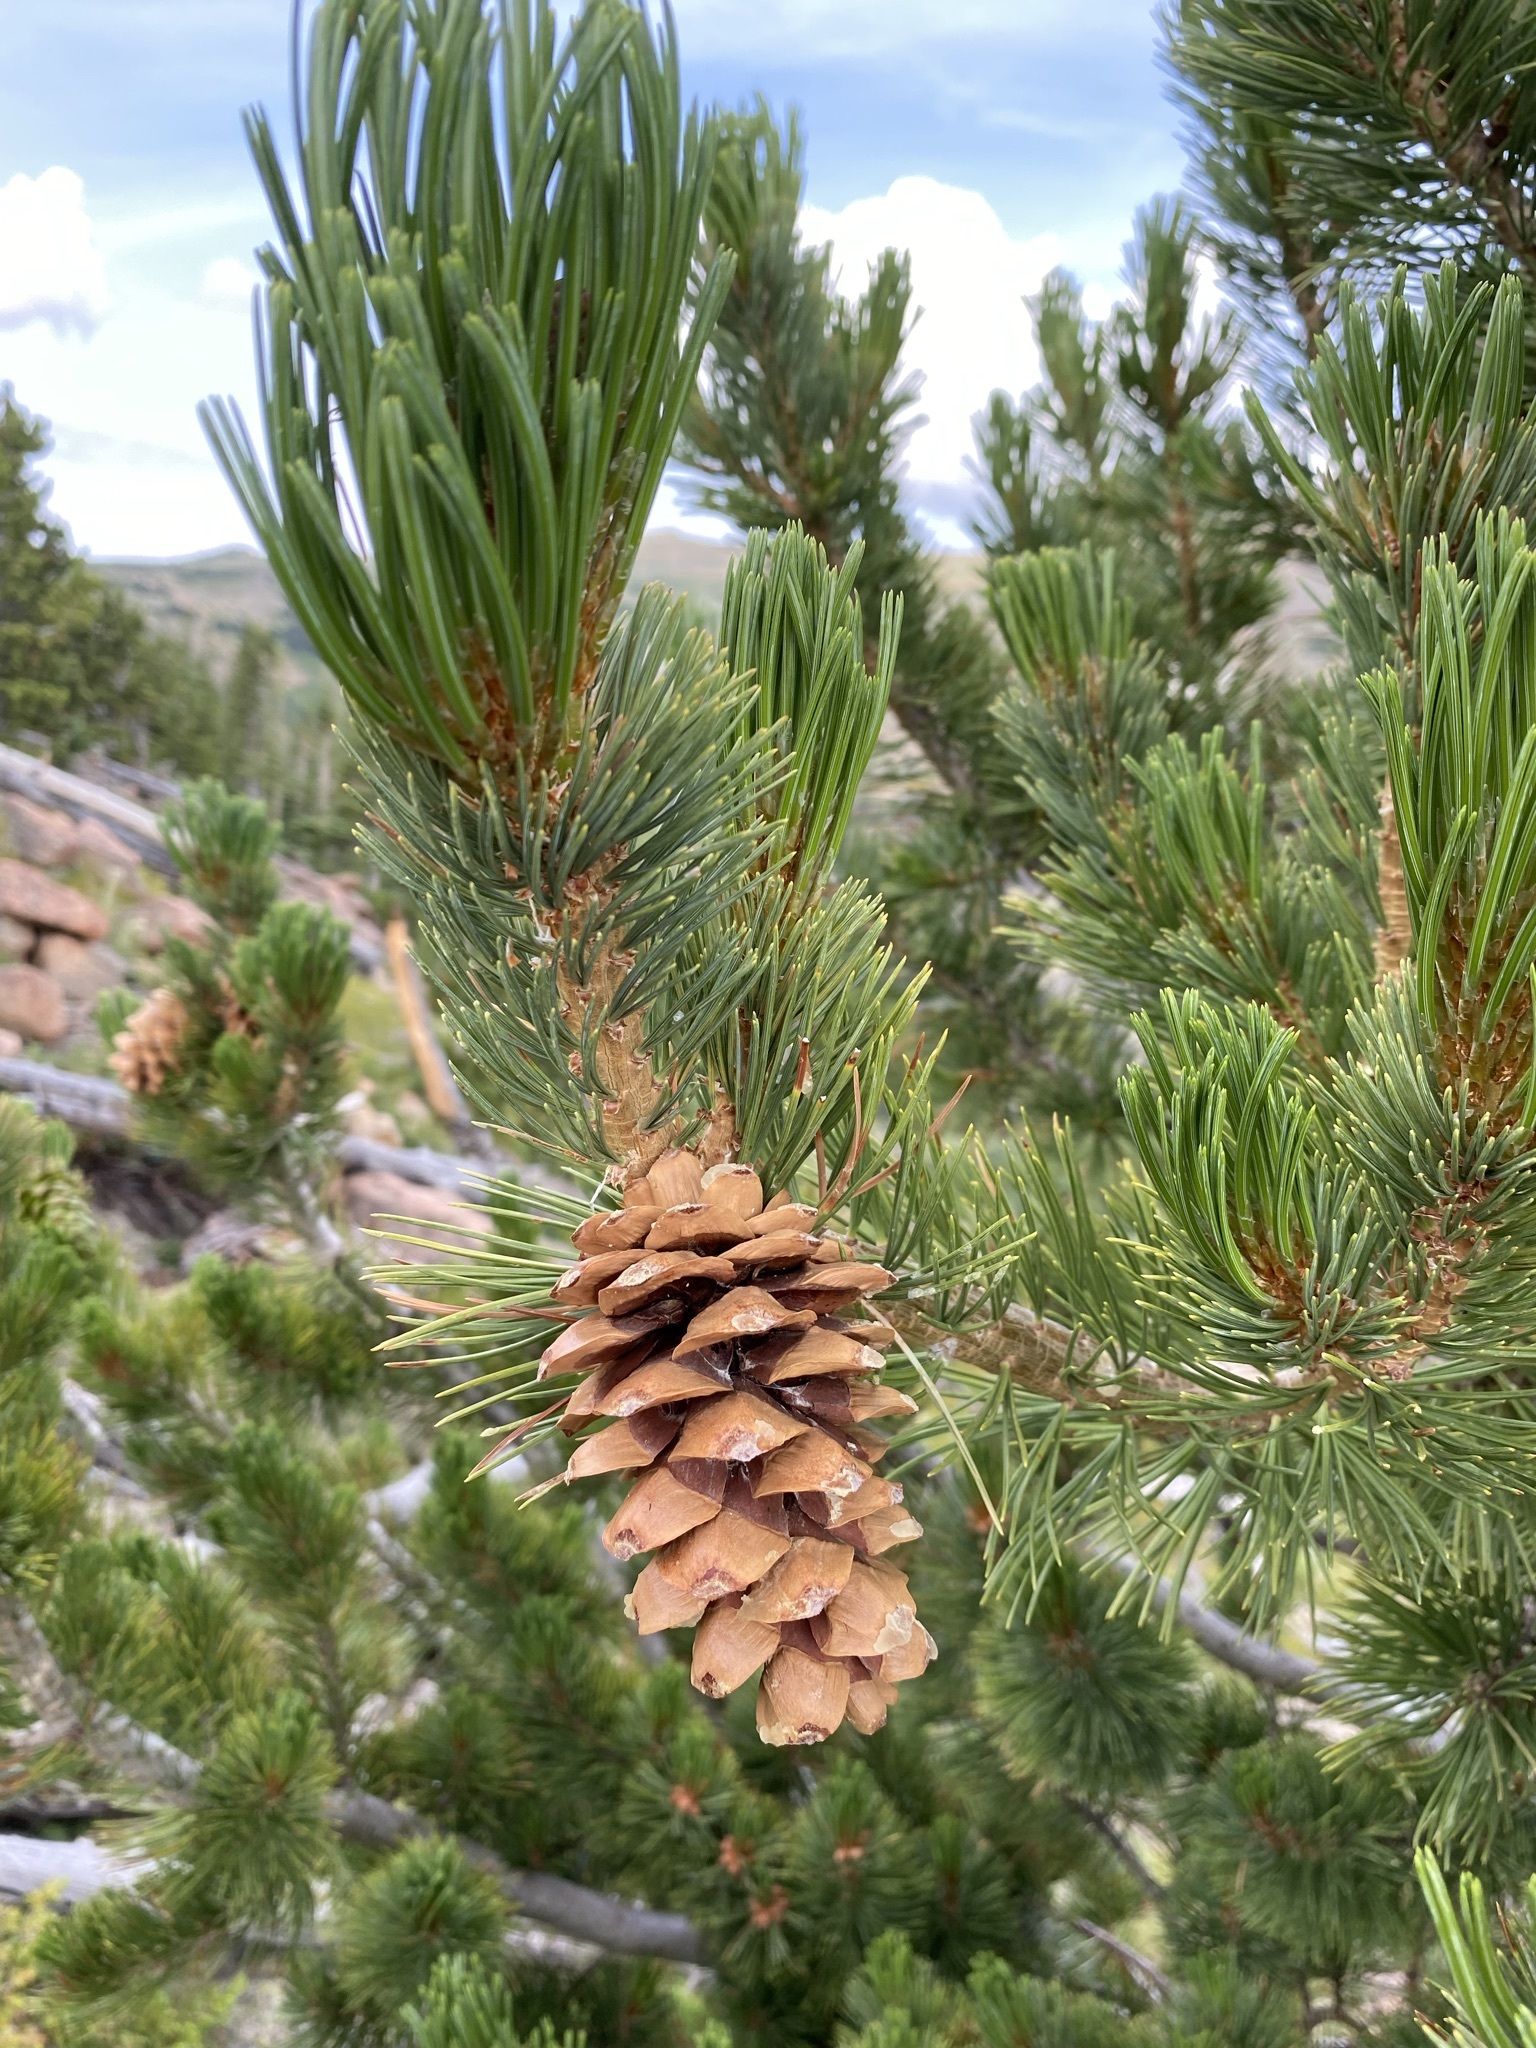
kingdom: Plantae
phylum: Tracheophyta
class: Pinopsida
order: Pinales
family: Pinaceae
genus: Pinus
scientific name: Pinus flexilis
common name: Limber pine
